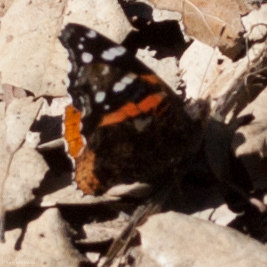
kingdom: Animalia
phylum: Arthropoda
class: Insecta
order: Lepidoptera
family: Nymphalidae
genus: Vanessa
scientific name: Vanessa atalanta
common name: Red admiral
